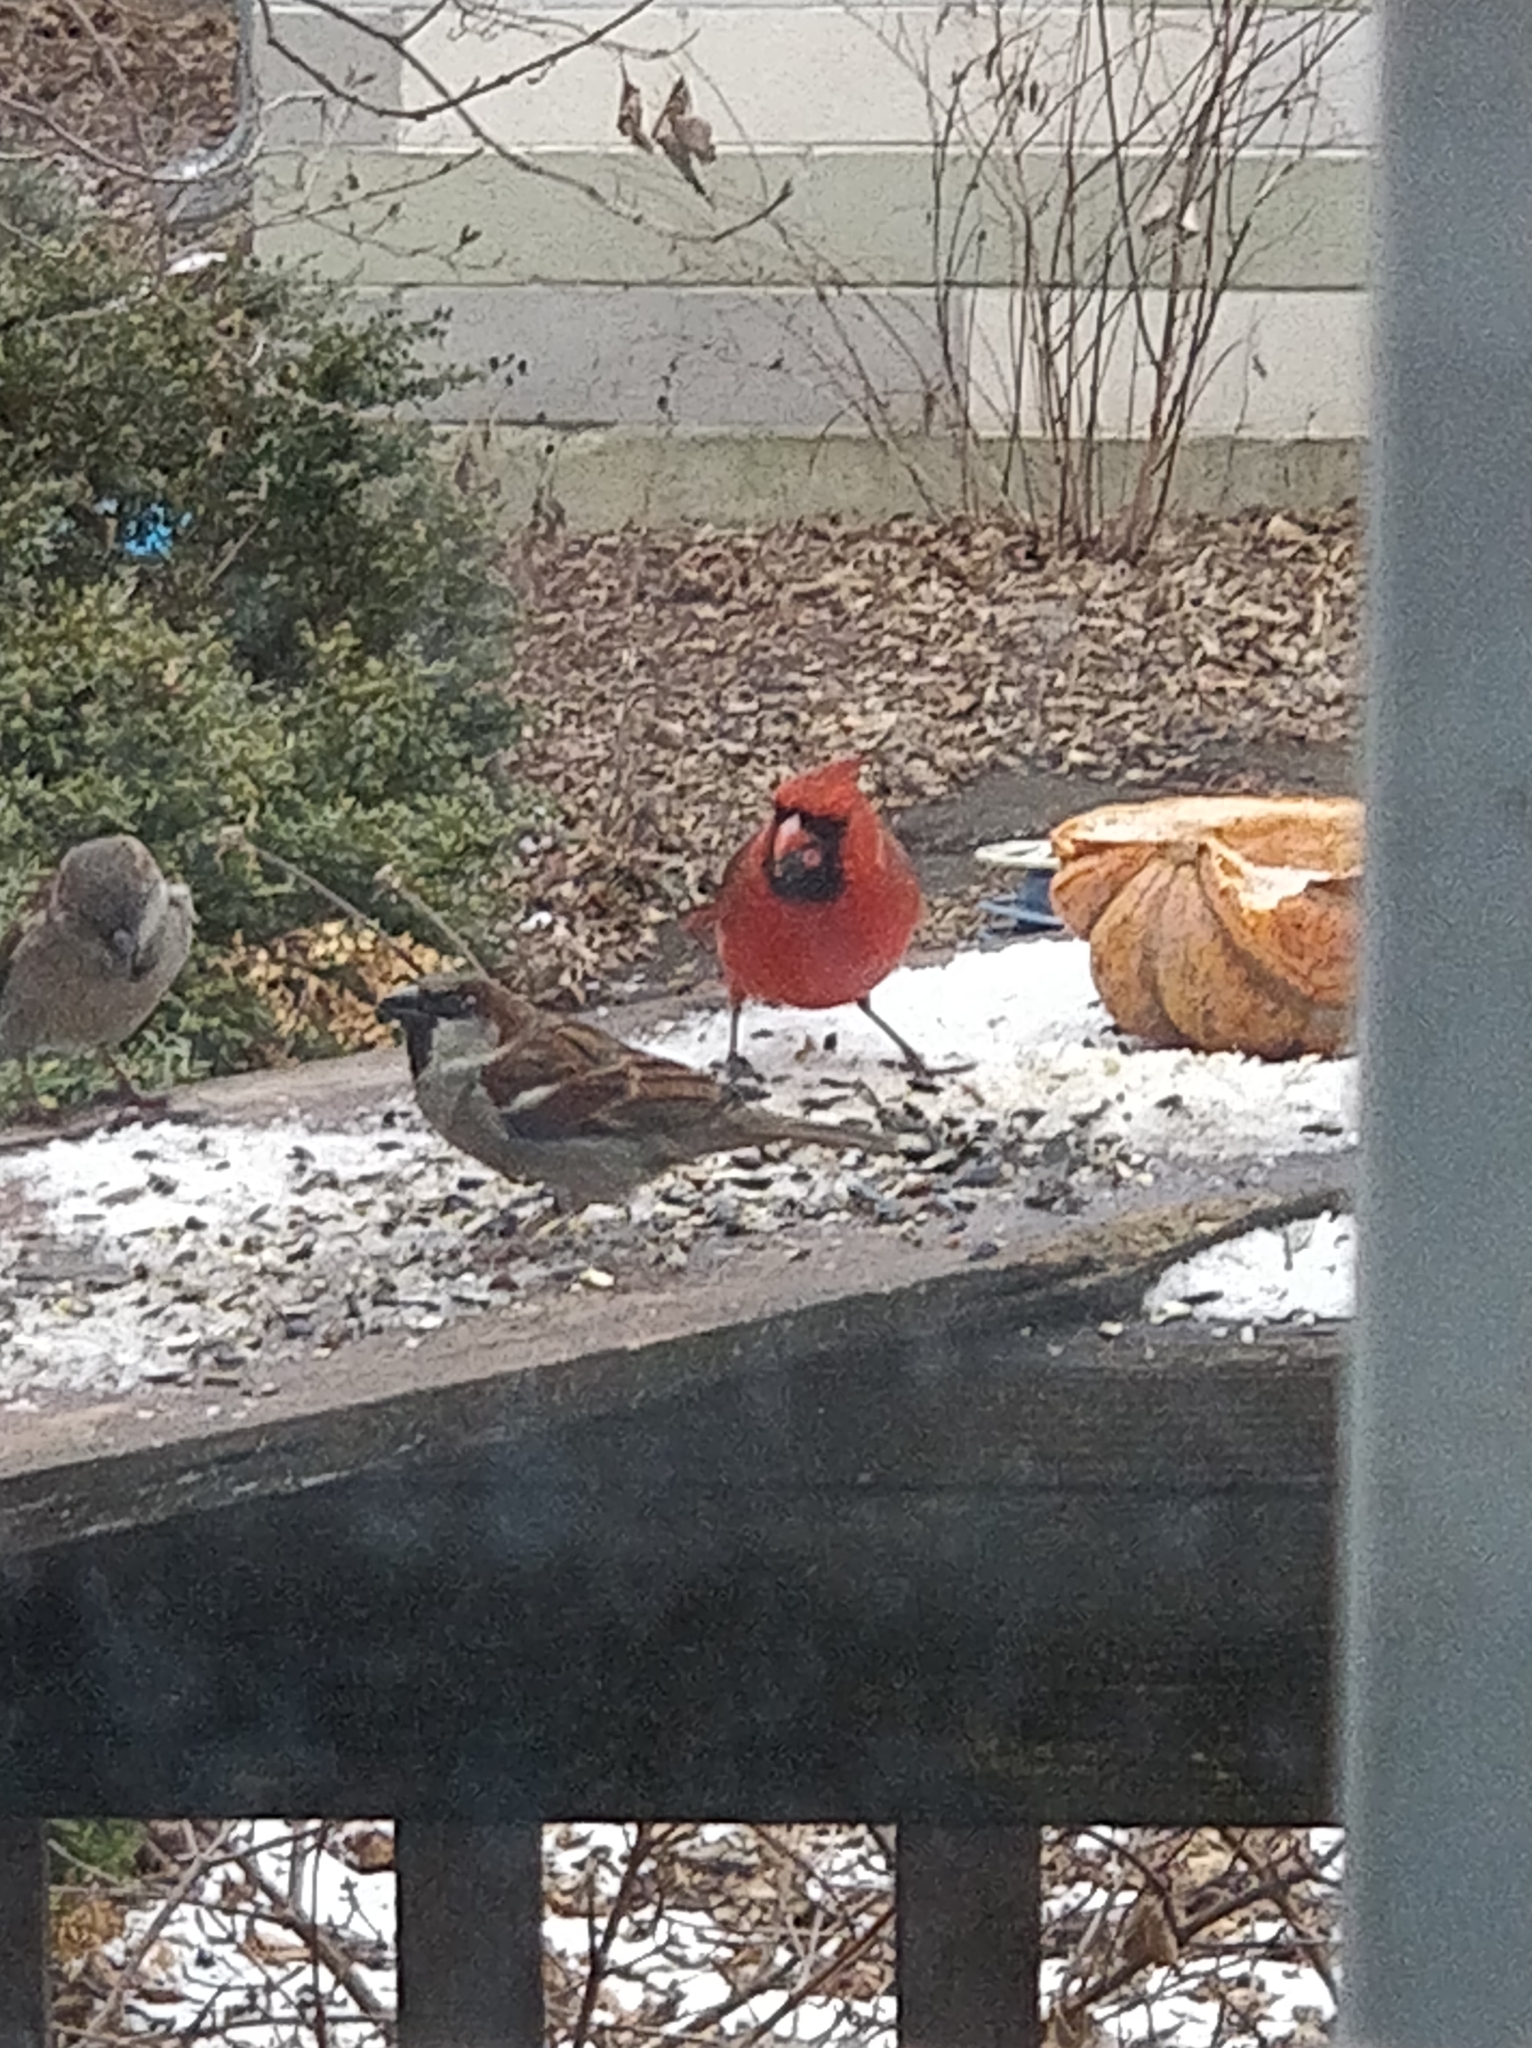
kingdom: Animalia
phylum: Chordata
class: Aves
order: Passeriformes
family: Cardinalidae
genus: Cardinalis
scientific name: Cardinalis cardinalis
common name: Northern cardinal
